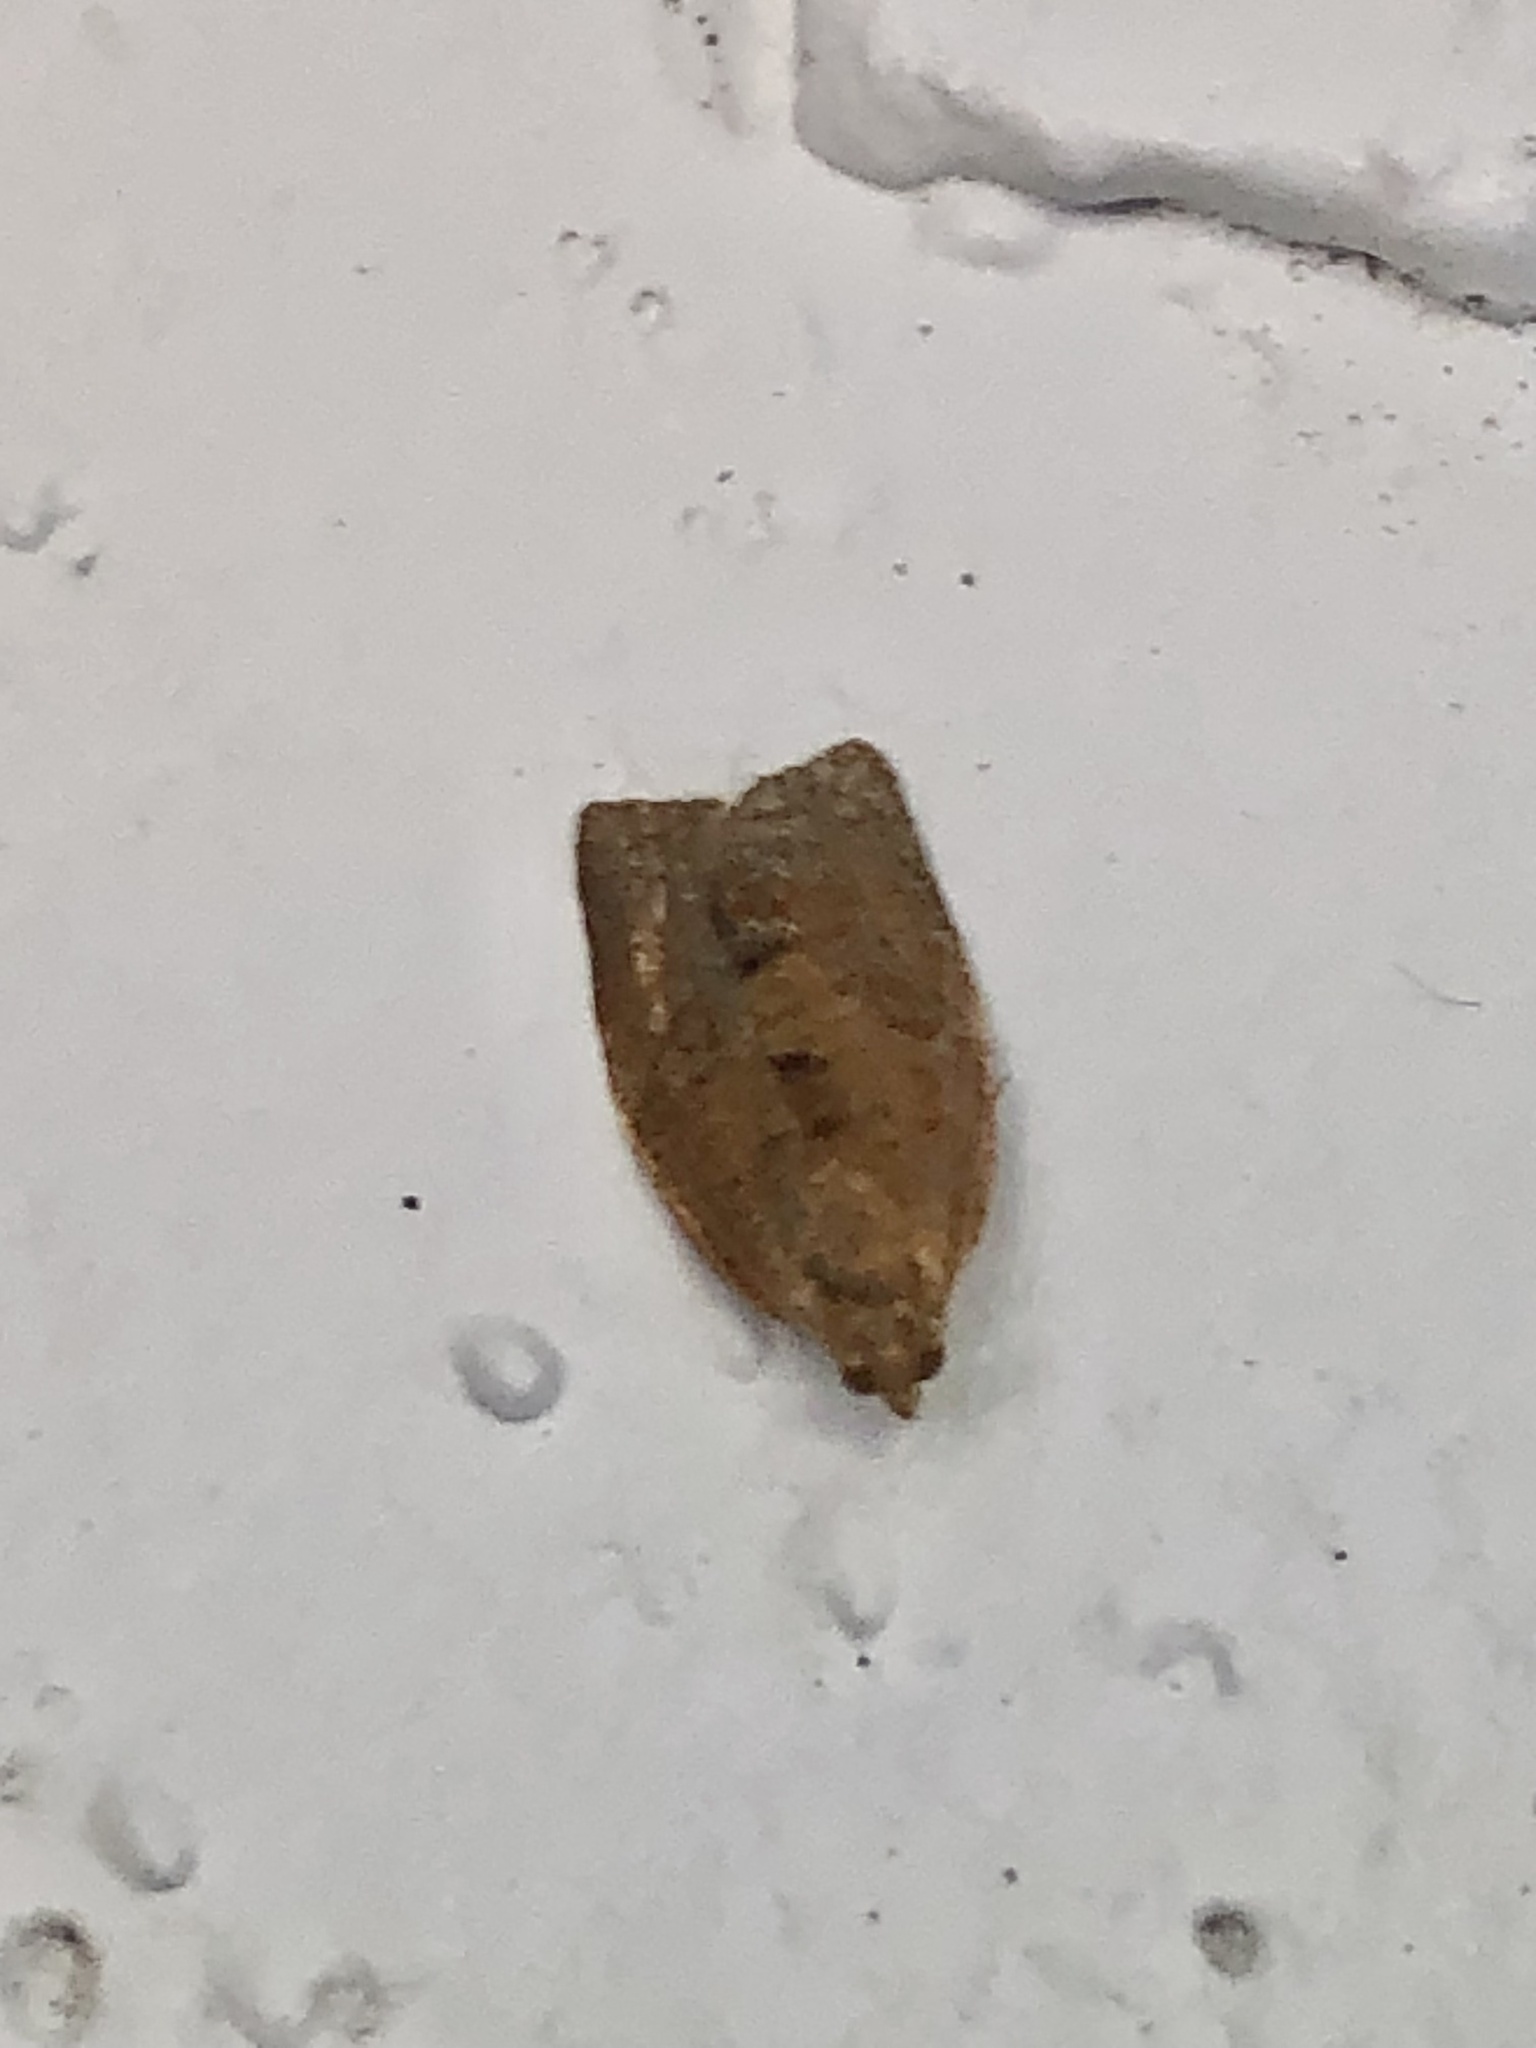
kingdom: Animalia
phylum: Arthropoda
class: Insecta
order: Lepidoptera
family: Tortricidae
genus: Clepsis
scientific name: Clepsis consimilana
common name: Privet tortrix
